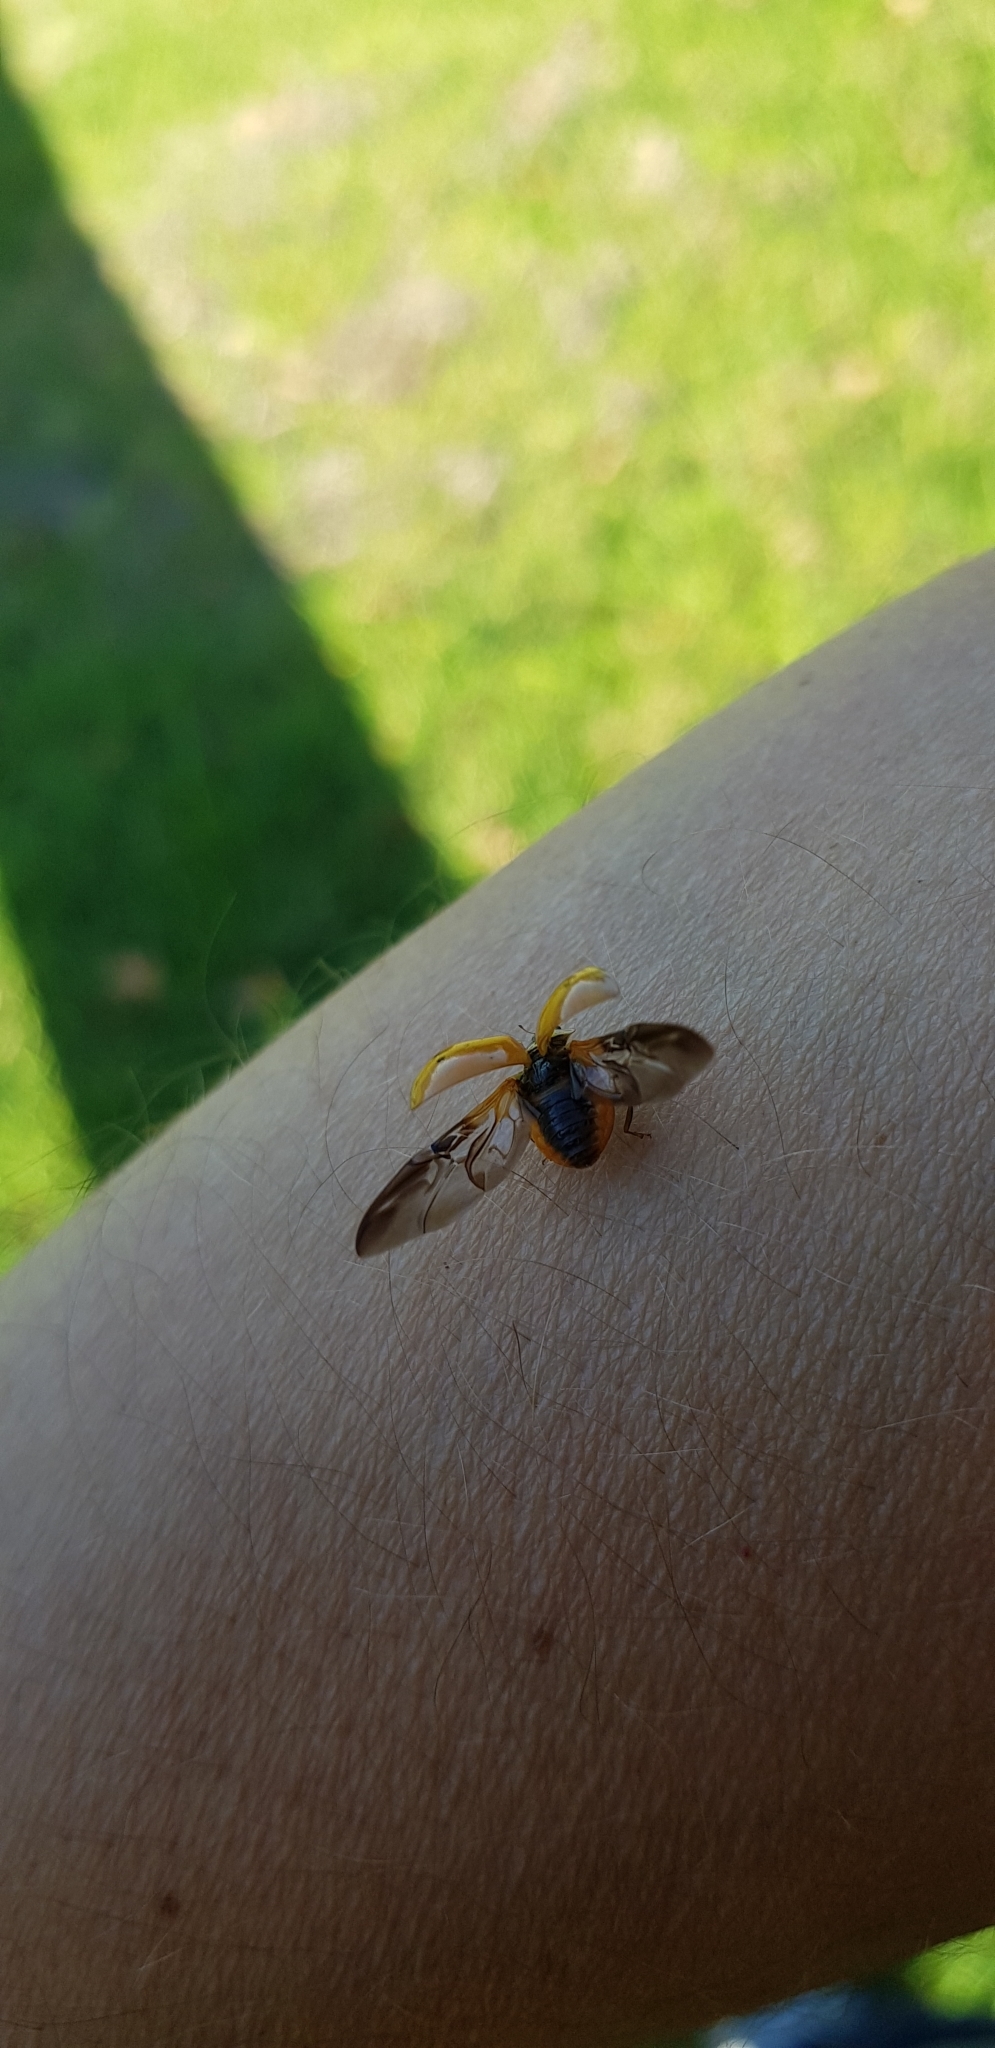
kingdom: Animalia
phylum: Arthropoda
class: Insecta
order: Coleoptera
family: Coccinellidae
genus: Harmonia
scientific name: Harmonia axyridis
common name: Harlequin ladybird
